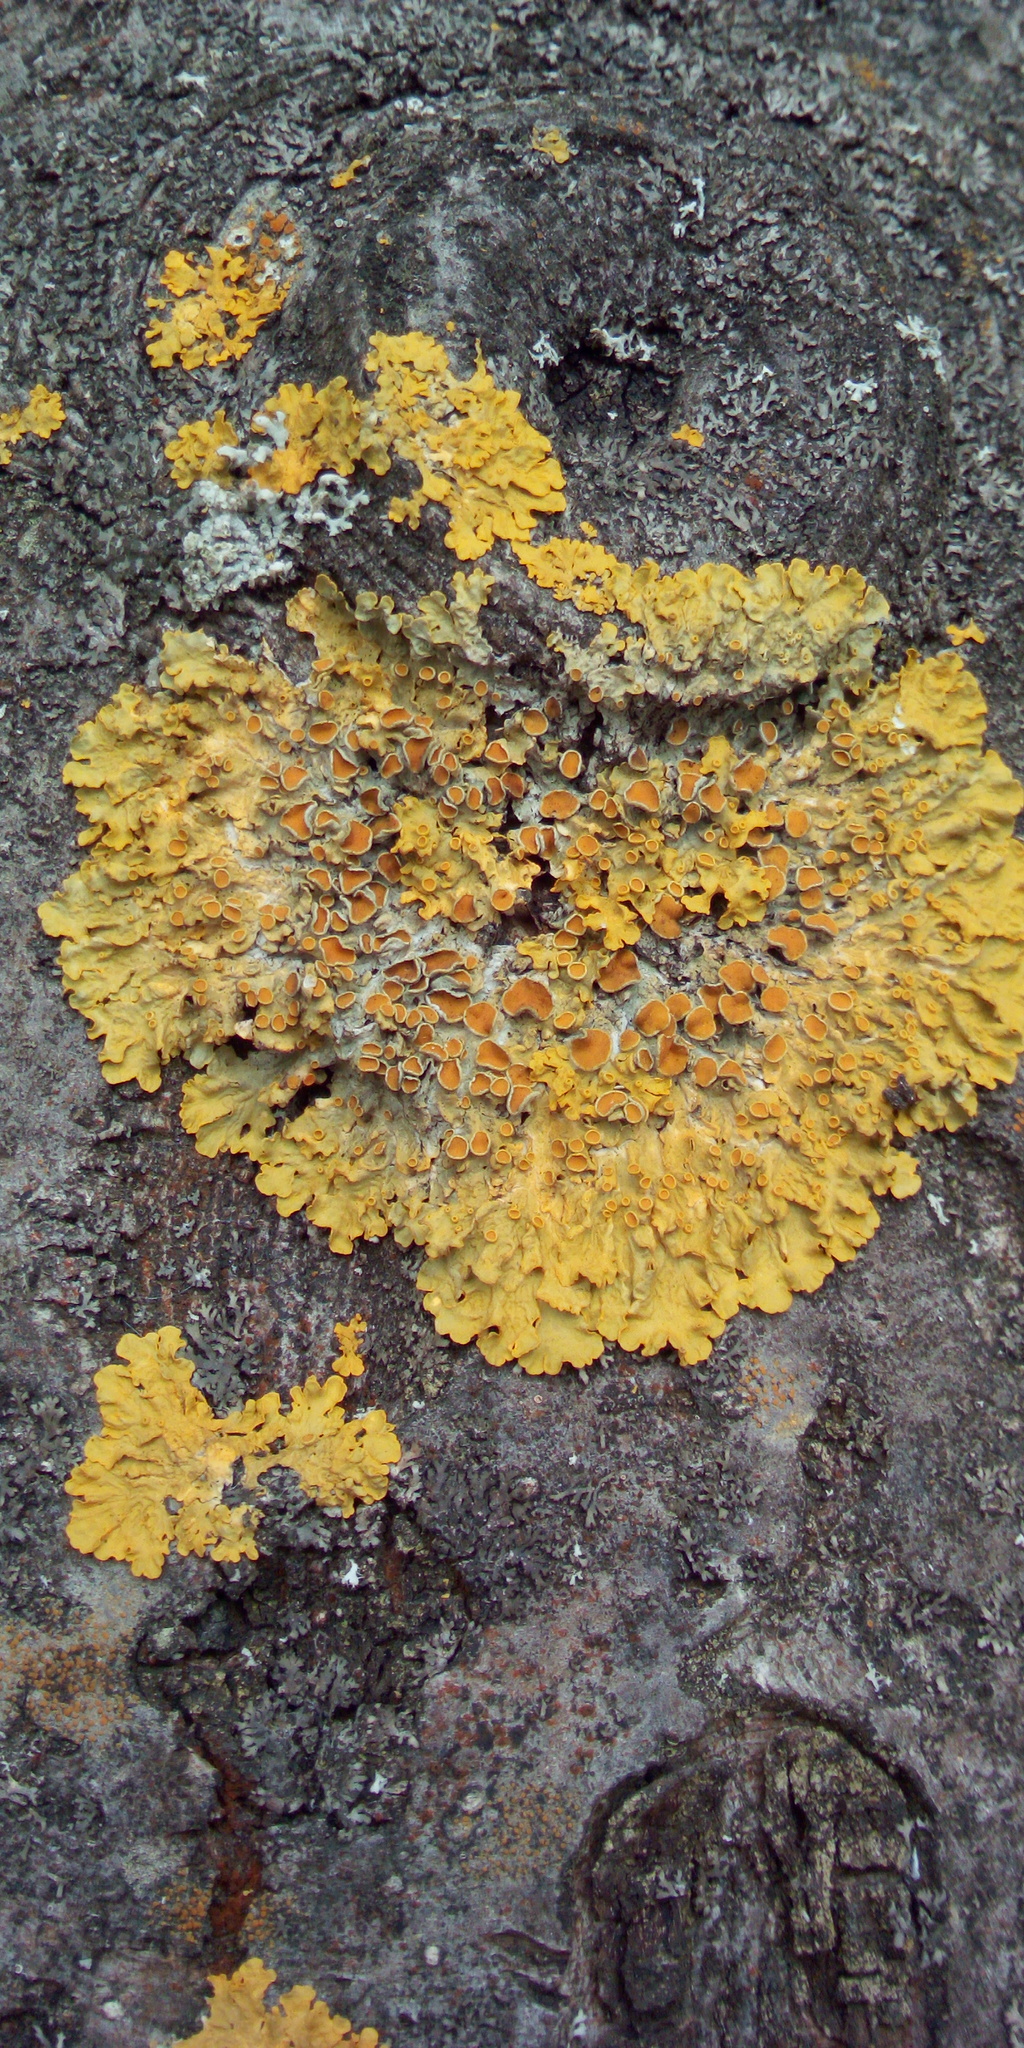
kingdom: Fungi
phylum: Ascomycota
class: Lecanoromycetes
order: Teloschistales
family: Teloschistaceae
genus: Xanthoria
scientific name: Xanthoria parietina
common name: Common orange lichen
